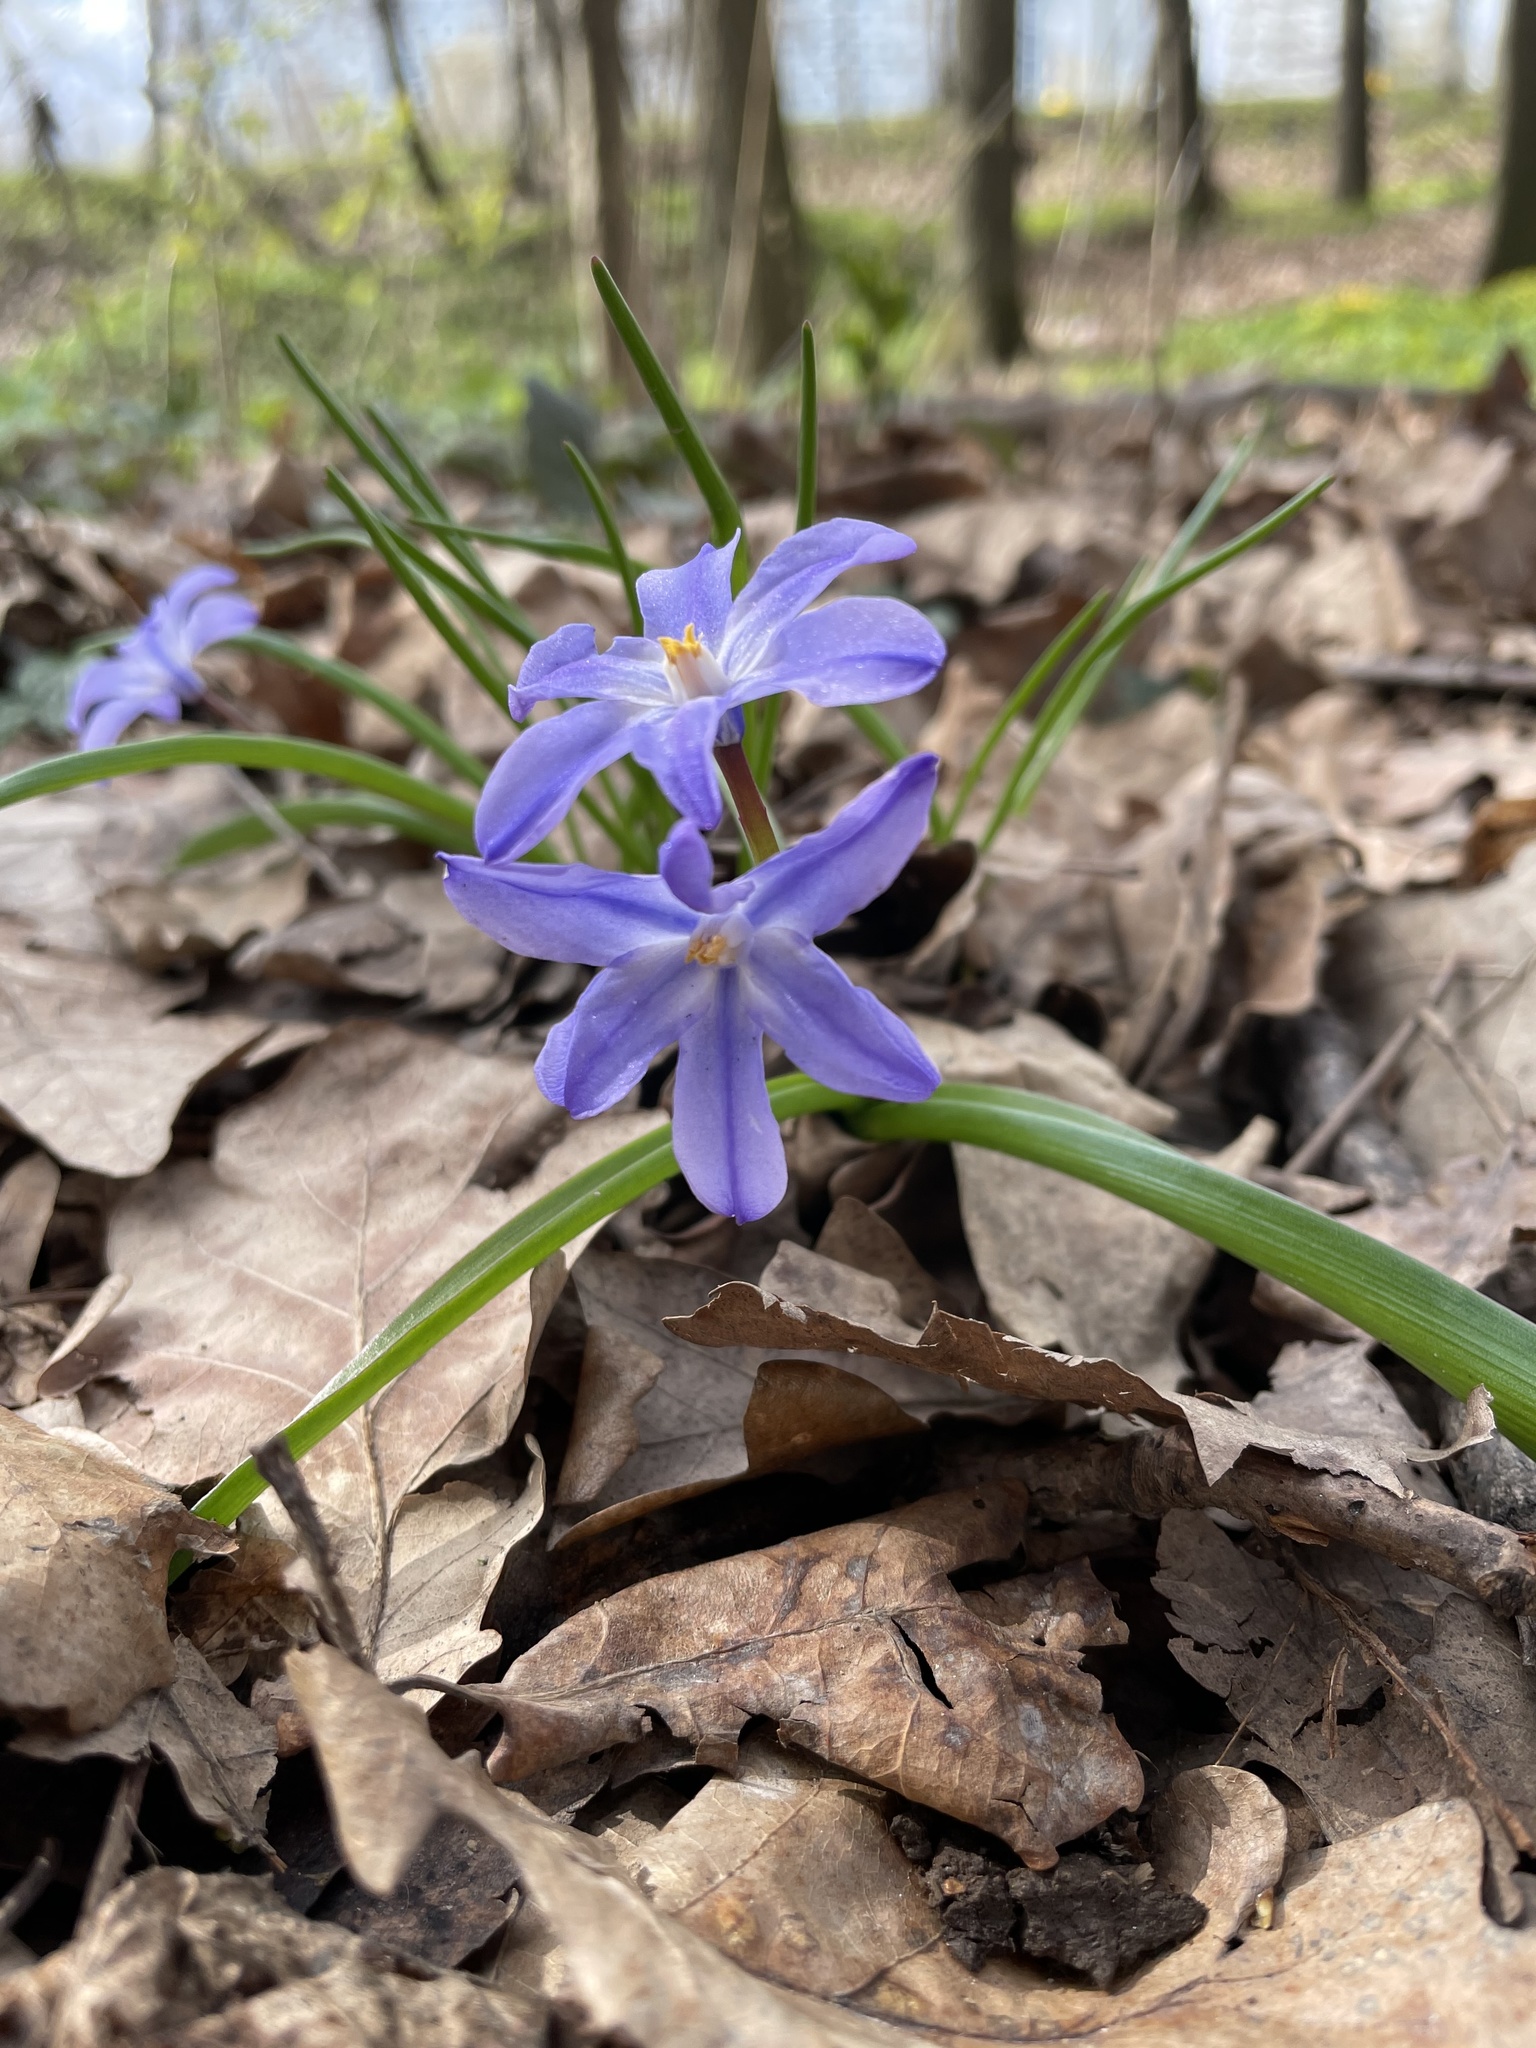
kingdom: Plantae
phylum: Tracheophyta
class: Liliopsida
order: Asparagales
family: Asparagaceae
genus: Scilla
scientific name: Scilla luciliae
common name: Boissier's glory-of-the-snow
